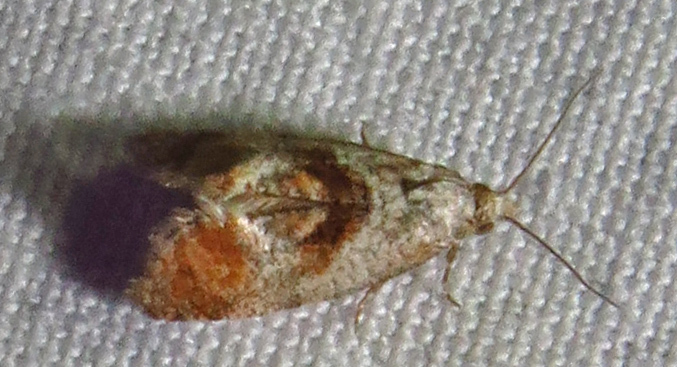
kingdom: Animalia
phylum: Arthropoda
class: Insecta
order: Lepidoptera
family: Tortricidae
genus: Cochylis
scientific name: Cochylis Cochylichroa temerana
